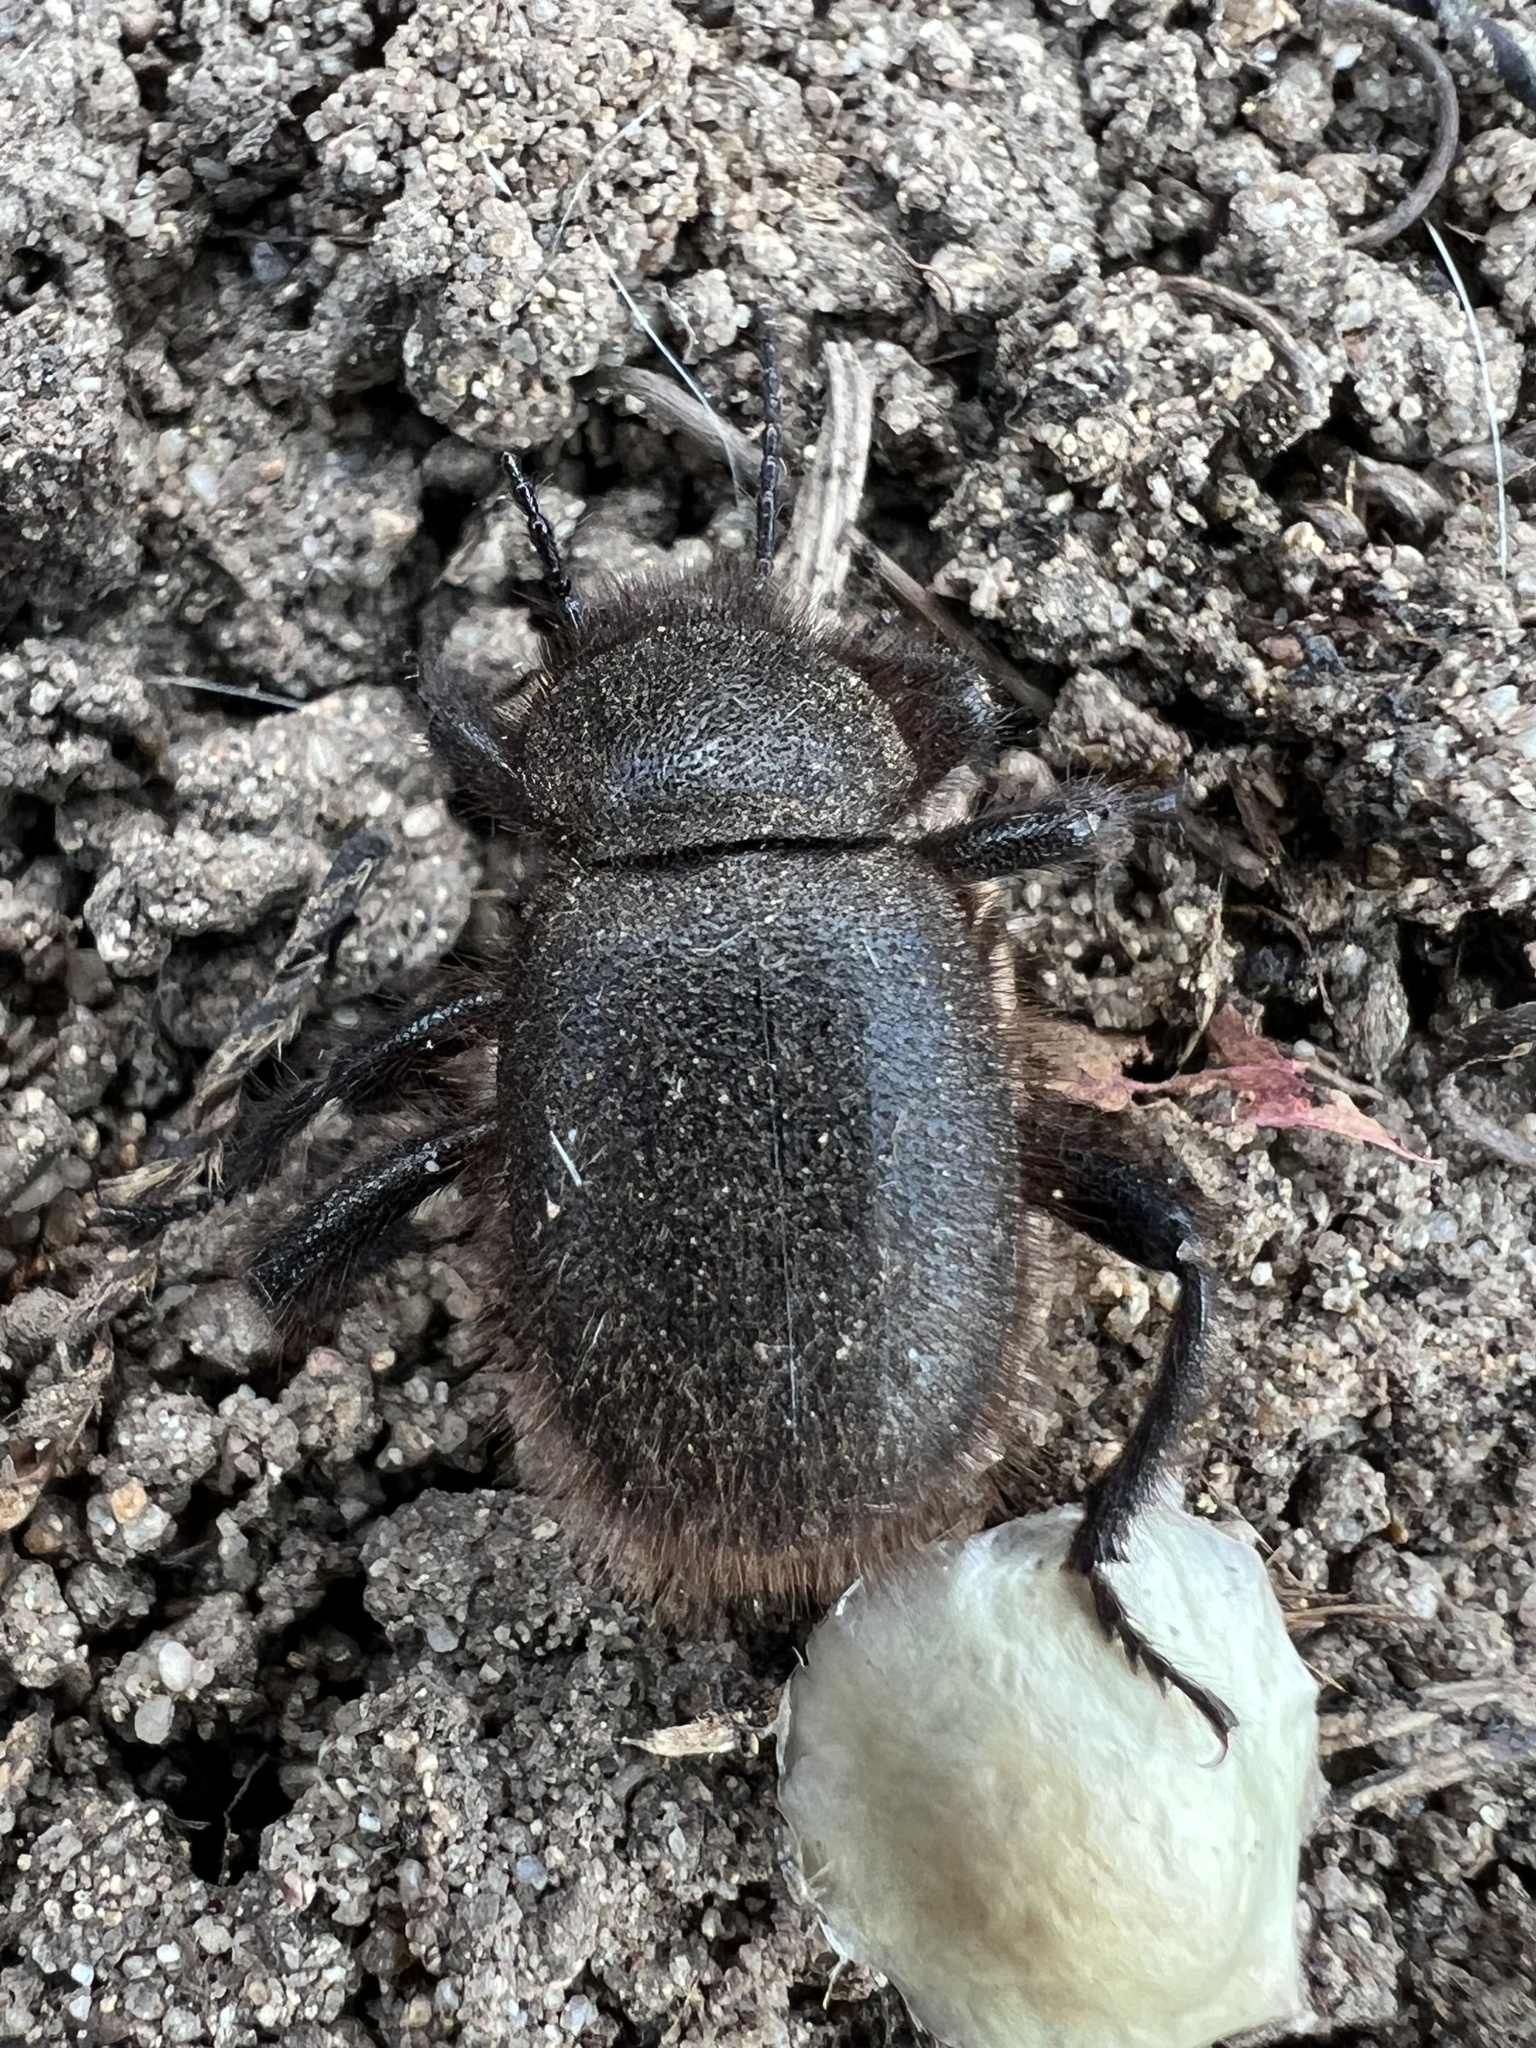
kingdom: Animalia
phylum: Arthropoda
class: Insecta
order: Coleoptera
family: Tenebrionidae
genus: Eleodes
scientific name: Eleodes osculans
